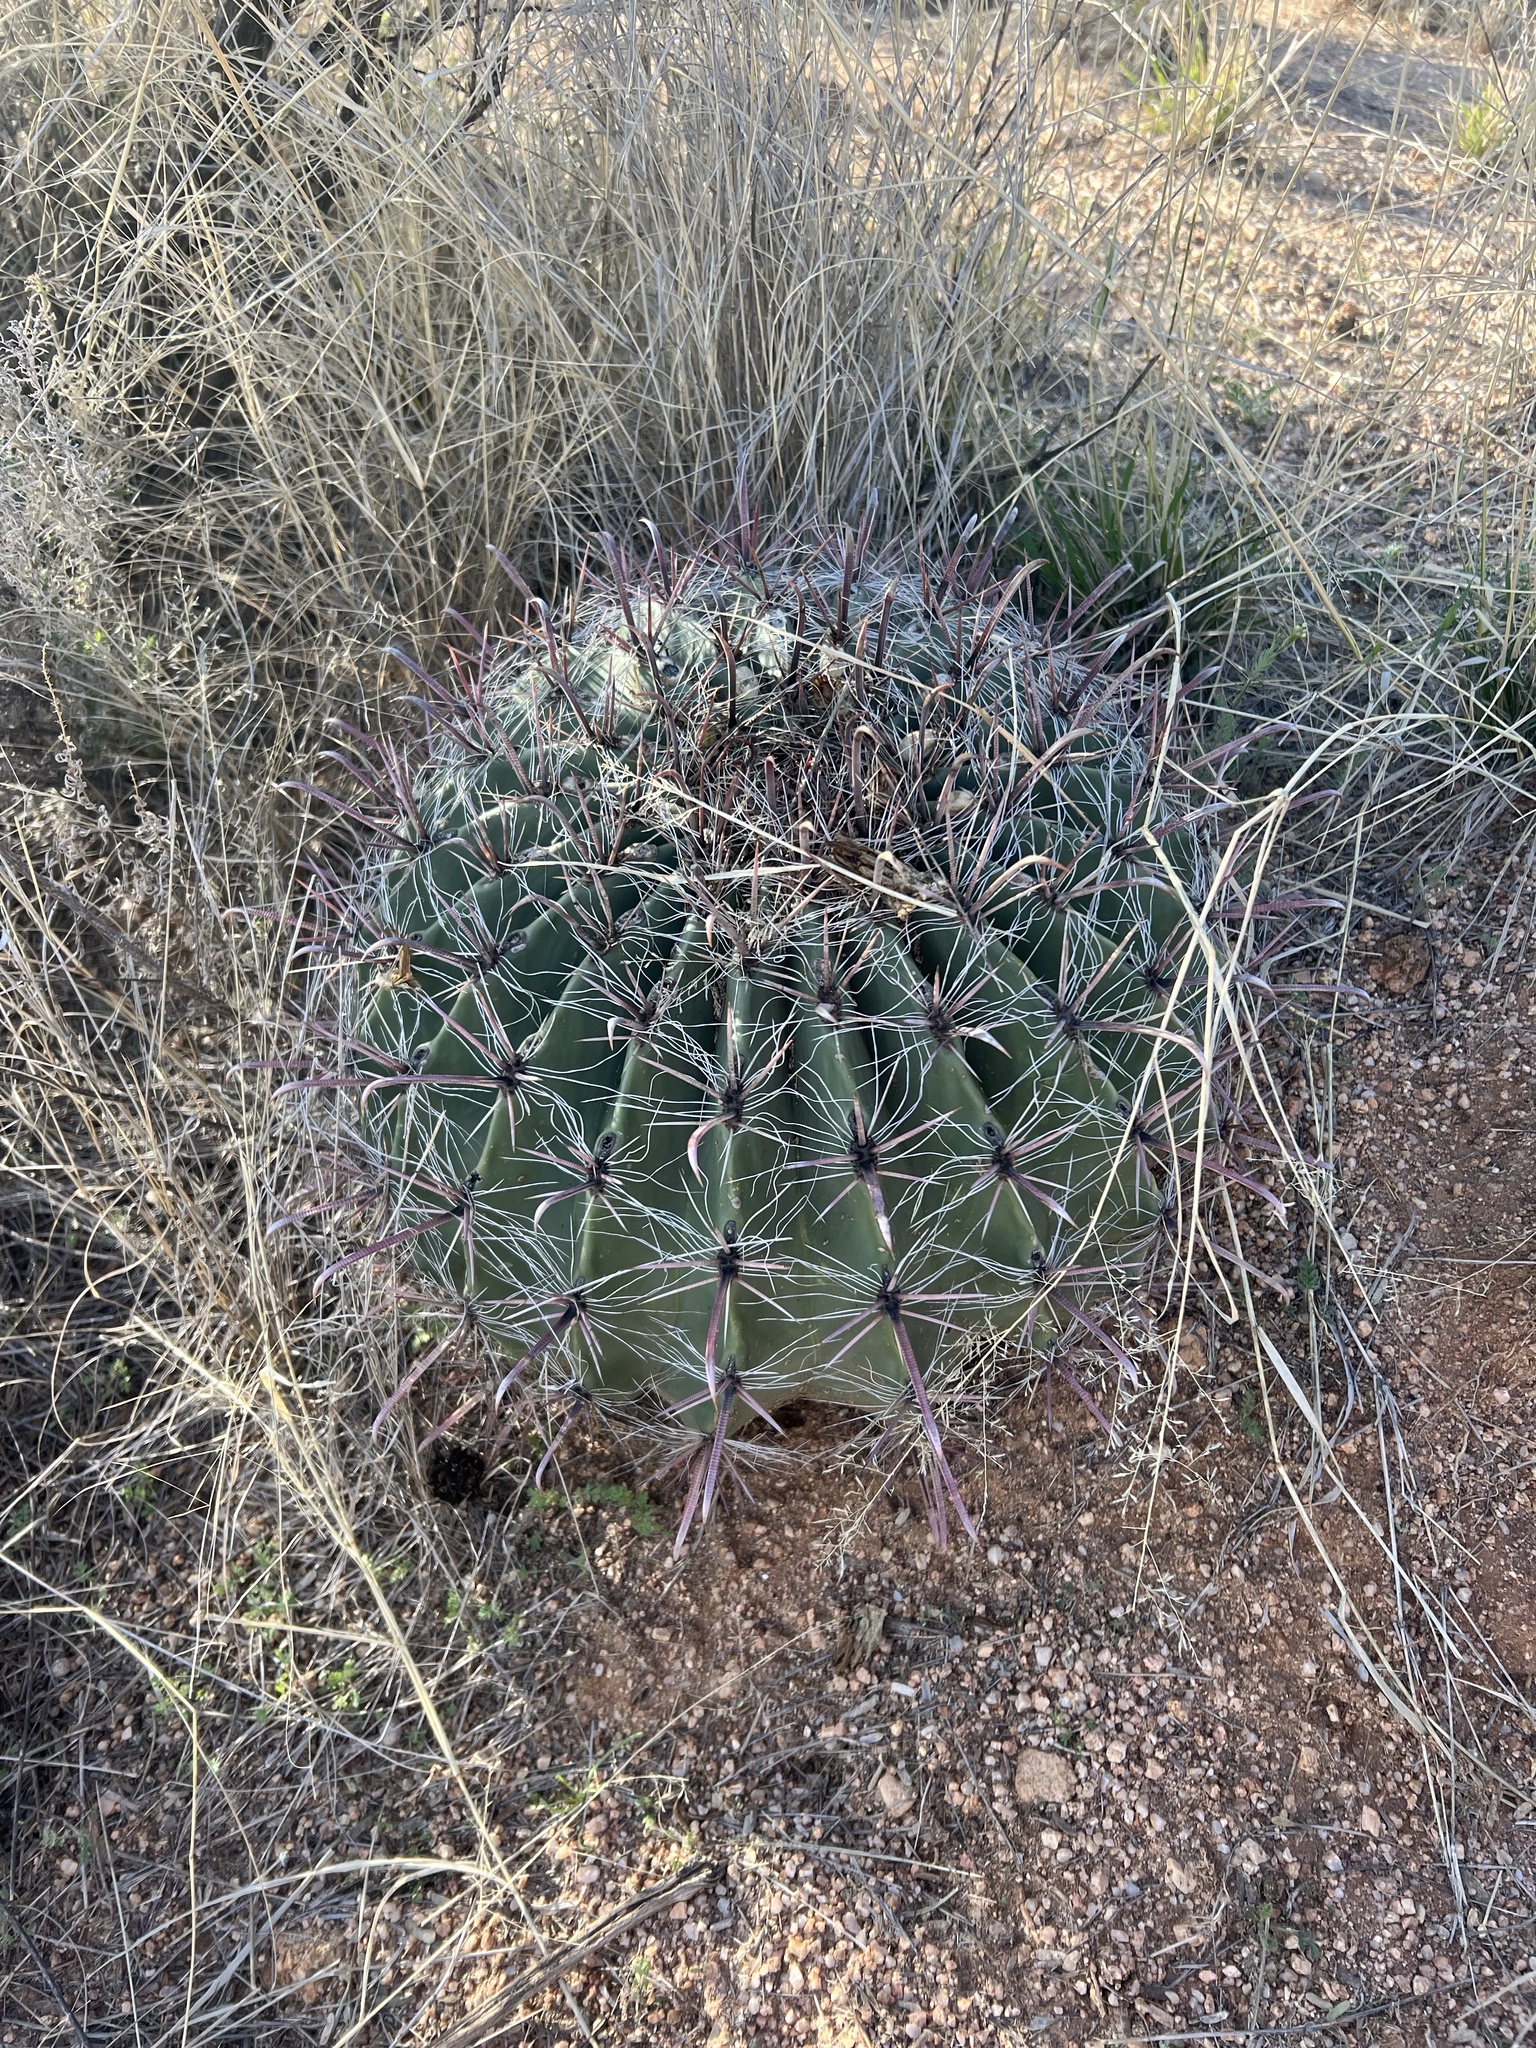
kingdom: Plantae
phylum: Tracheophyta
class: Magnoliopsida
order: Caryophyllales
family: Cactaceae
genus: Ferocactus
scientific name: Ferocactus wislizeni
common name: Candy barrel cactus
